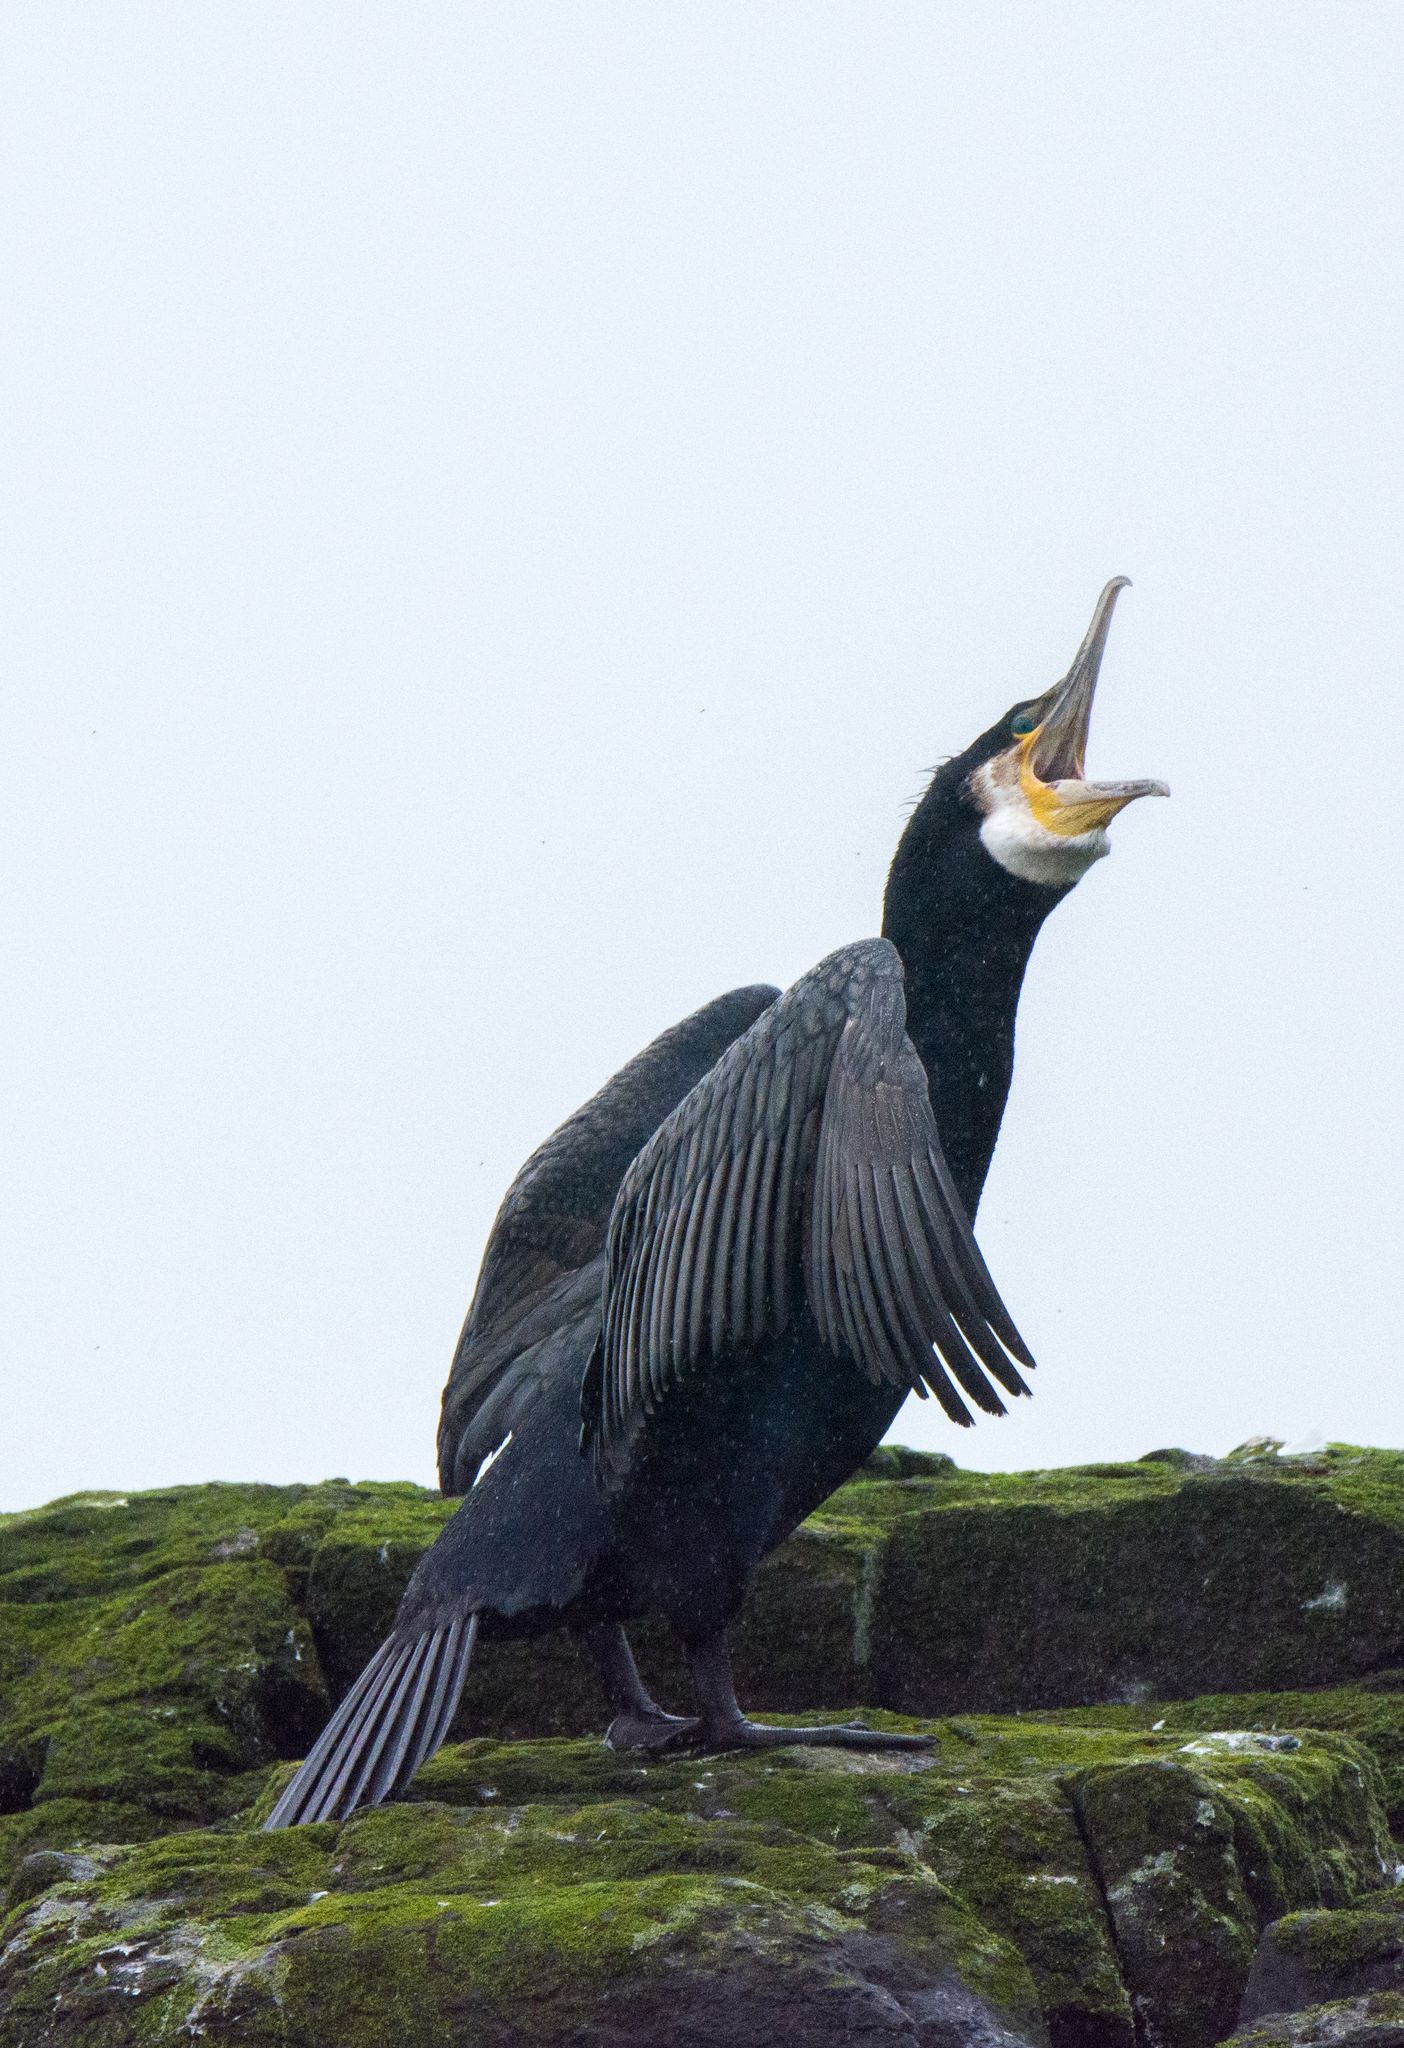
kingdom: Animalia
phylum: Chordata
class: Aves
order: Suliformes
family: Phalacrocoracidae
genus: Phalacrocorax
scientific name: Phalacrocorax carbo
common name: Great cormorant
